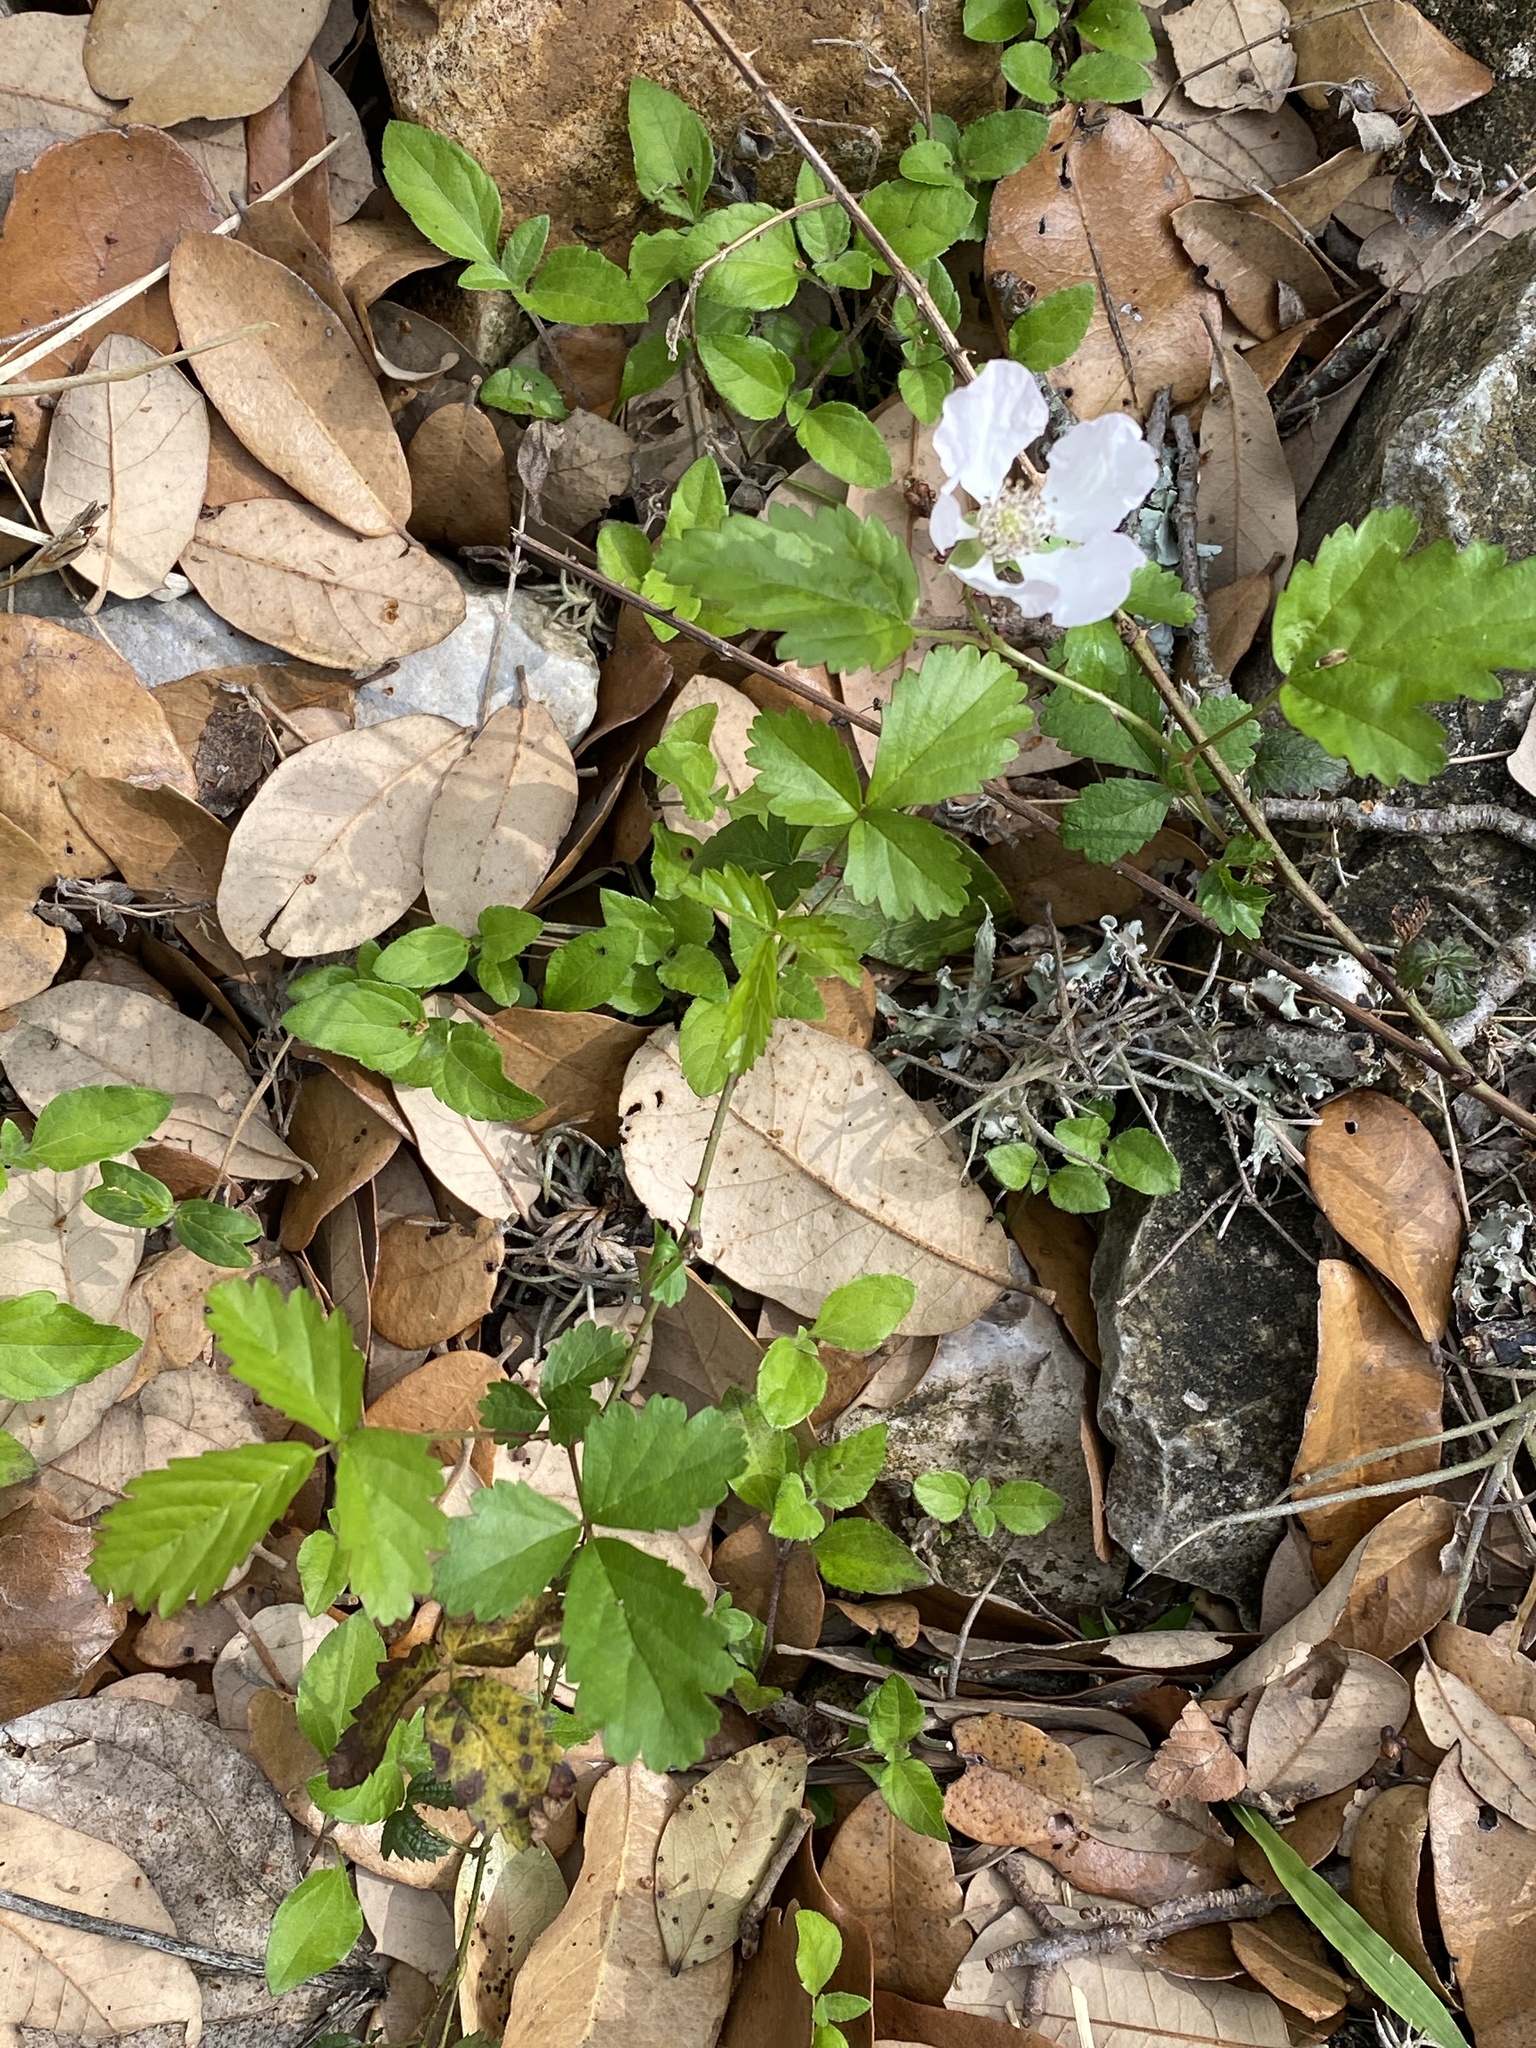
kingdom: Plantae
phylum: Tracheophyta
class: Magnoliopsida
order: Rosales
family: Rosaceae
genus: Rubus
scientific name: Rubus trivialis
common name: Southern dewberry
